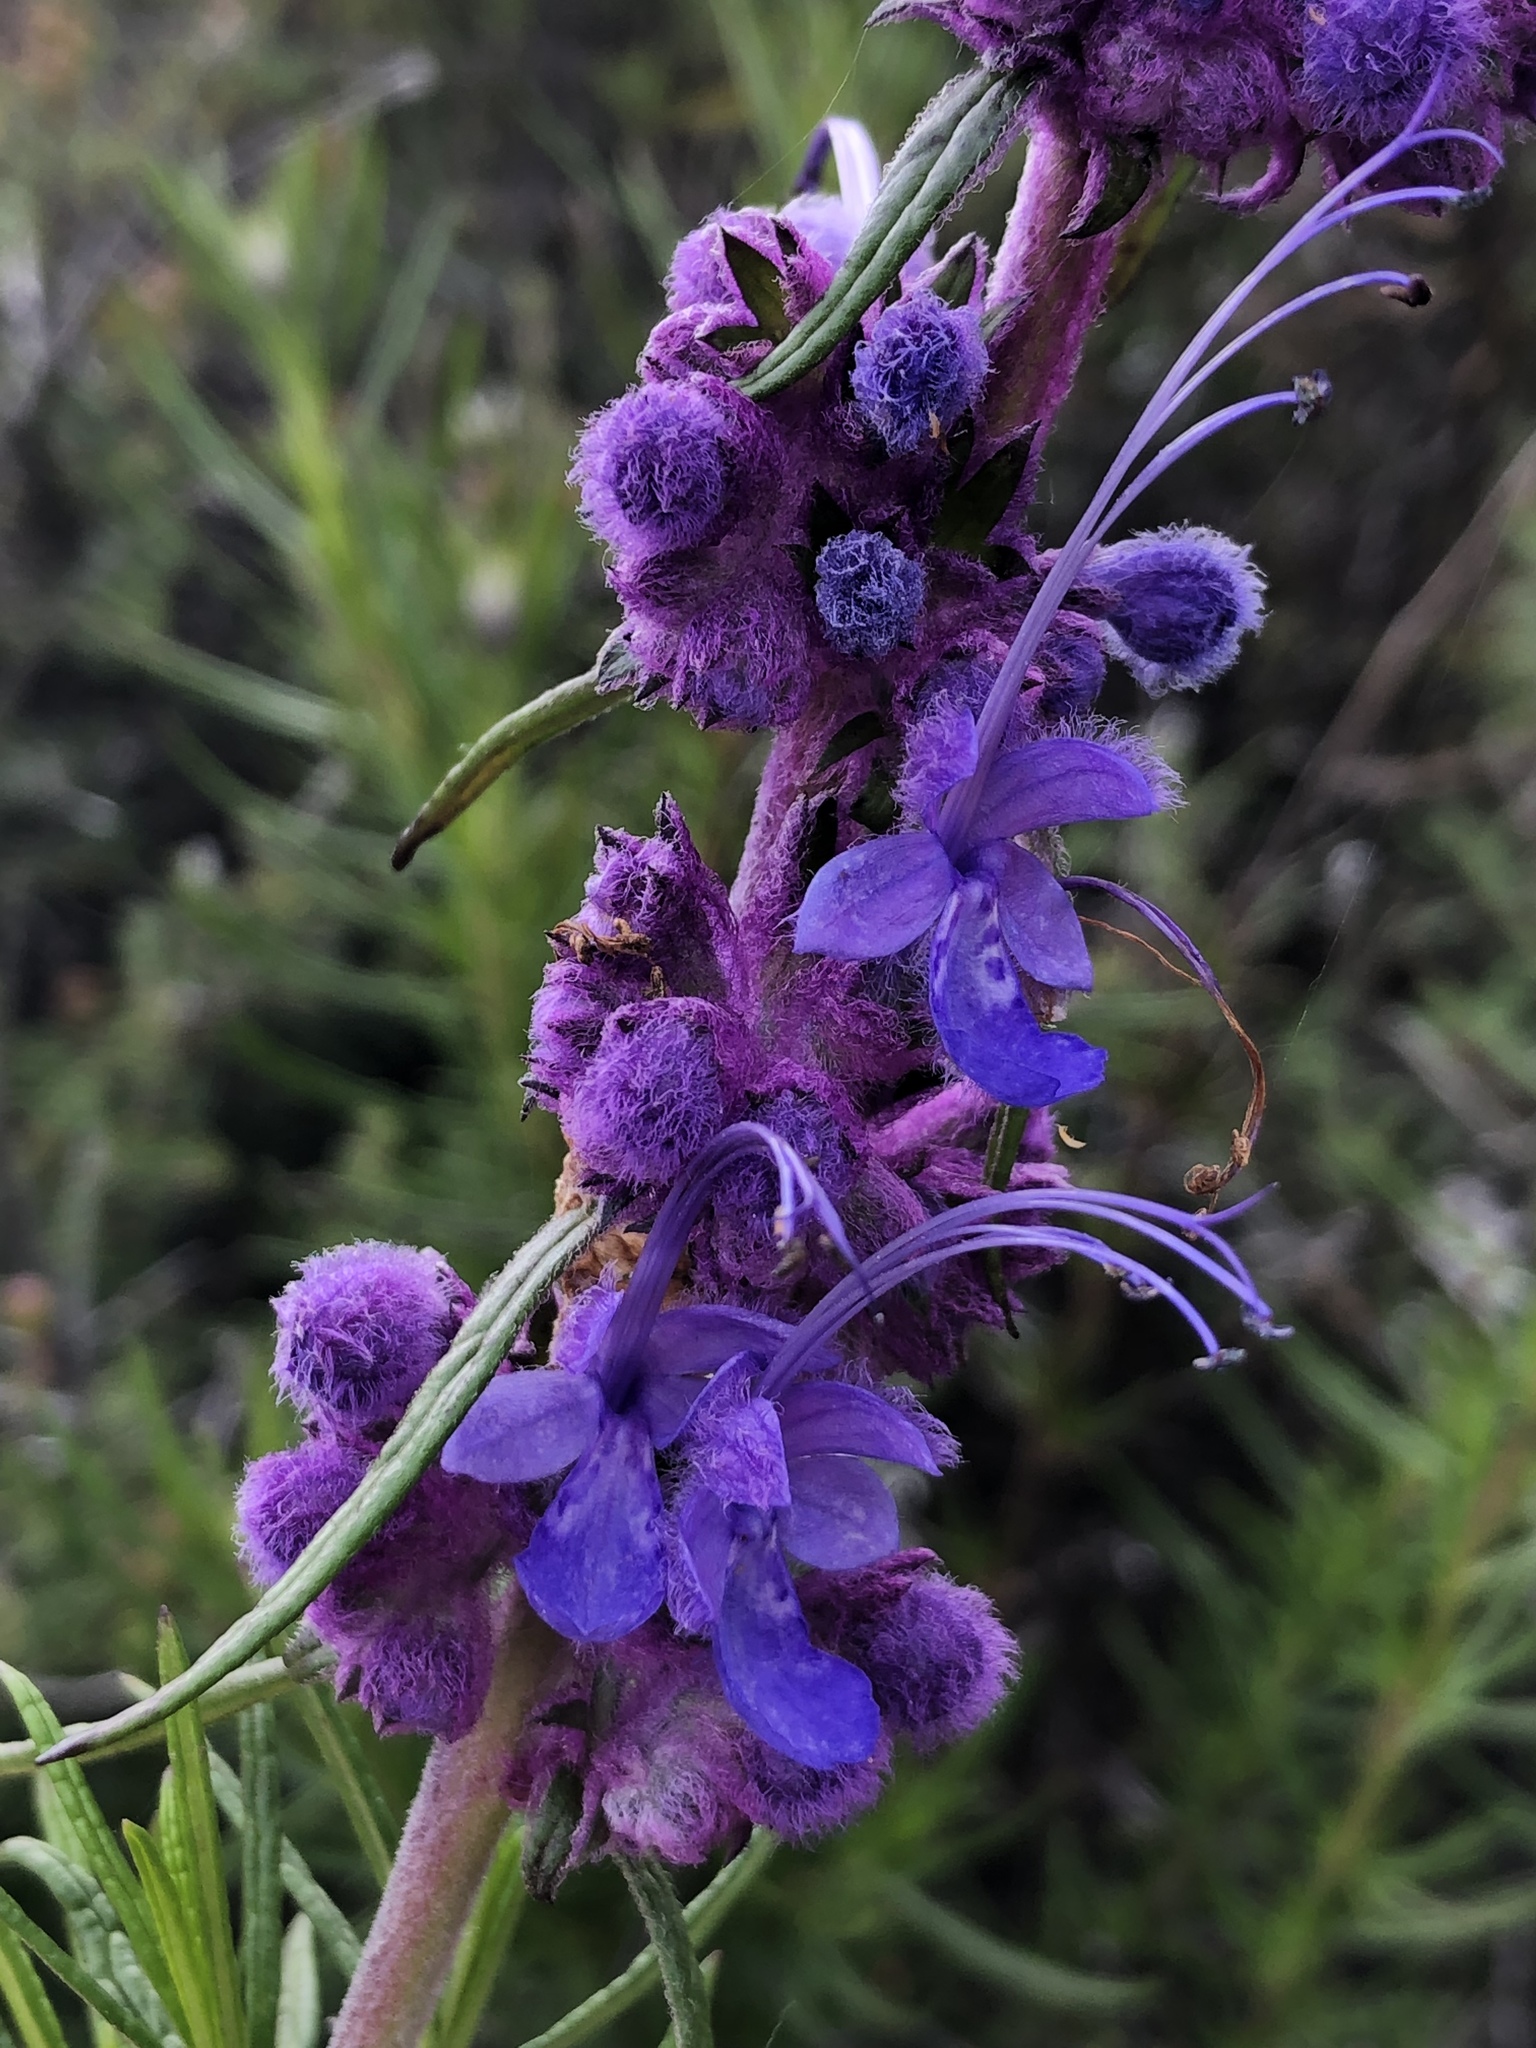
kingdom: Plantae
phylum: Tracheophyta
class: Magnoliopsida
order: Lamiales
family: Lamiaceae
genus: Trichostema
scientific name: Trichostema lanatum
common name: Woolly bluecurls
